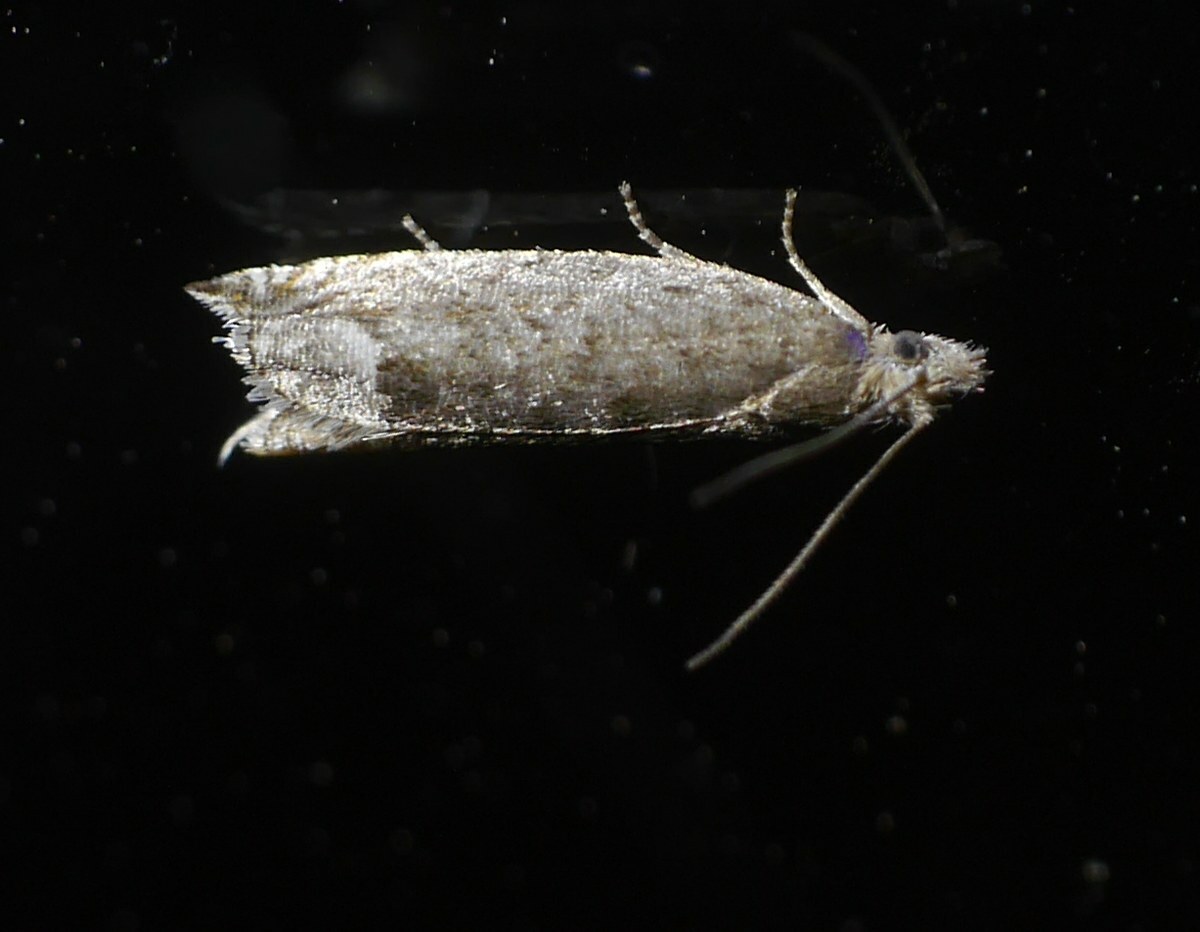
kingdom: Animalia
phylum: Arthropoda
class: Insecta
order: Lepidoptera
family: Tortricidae
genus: Ancylis
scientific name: Ancylis tineana
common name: Rannoch roller
